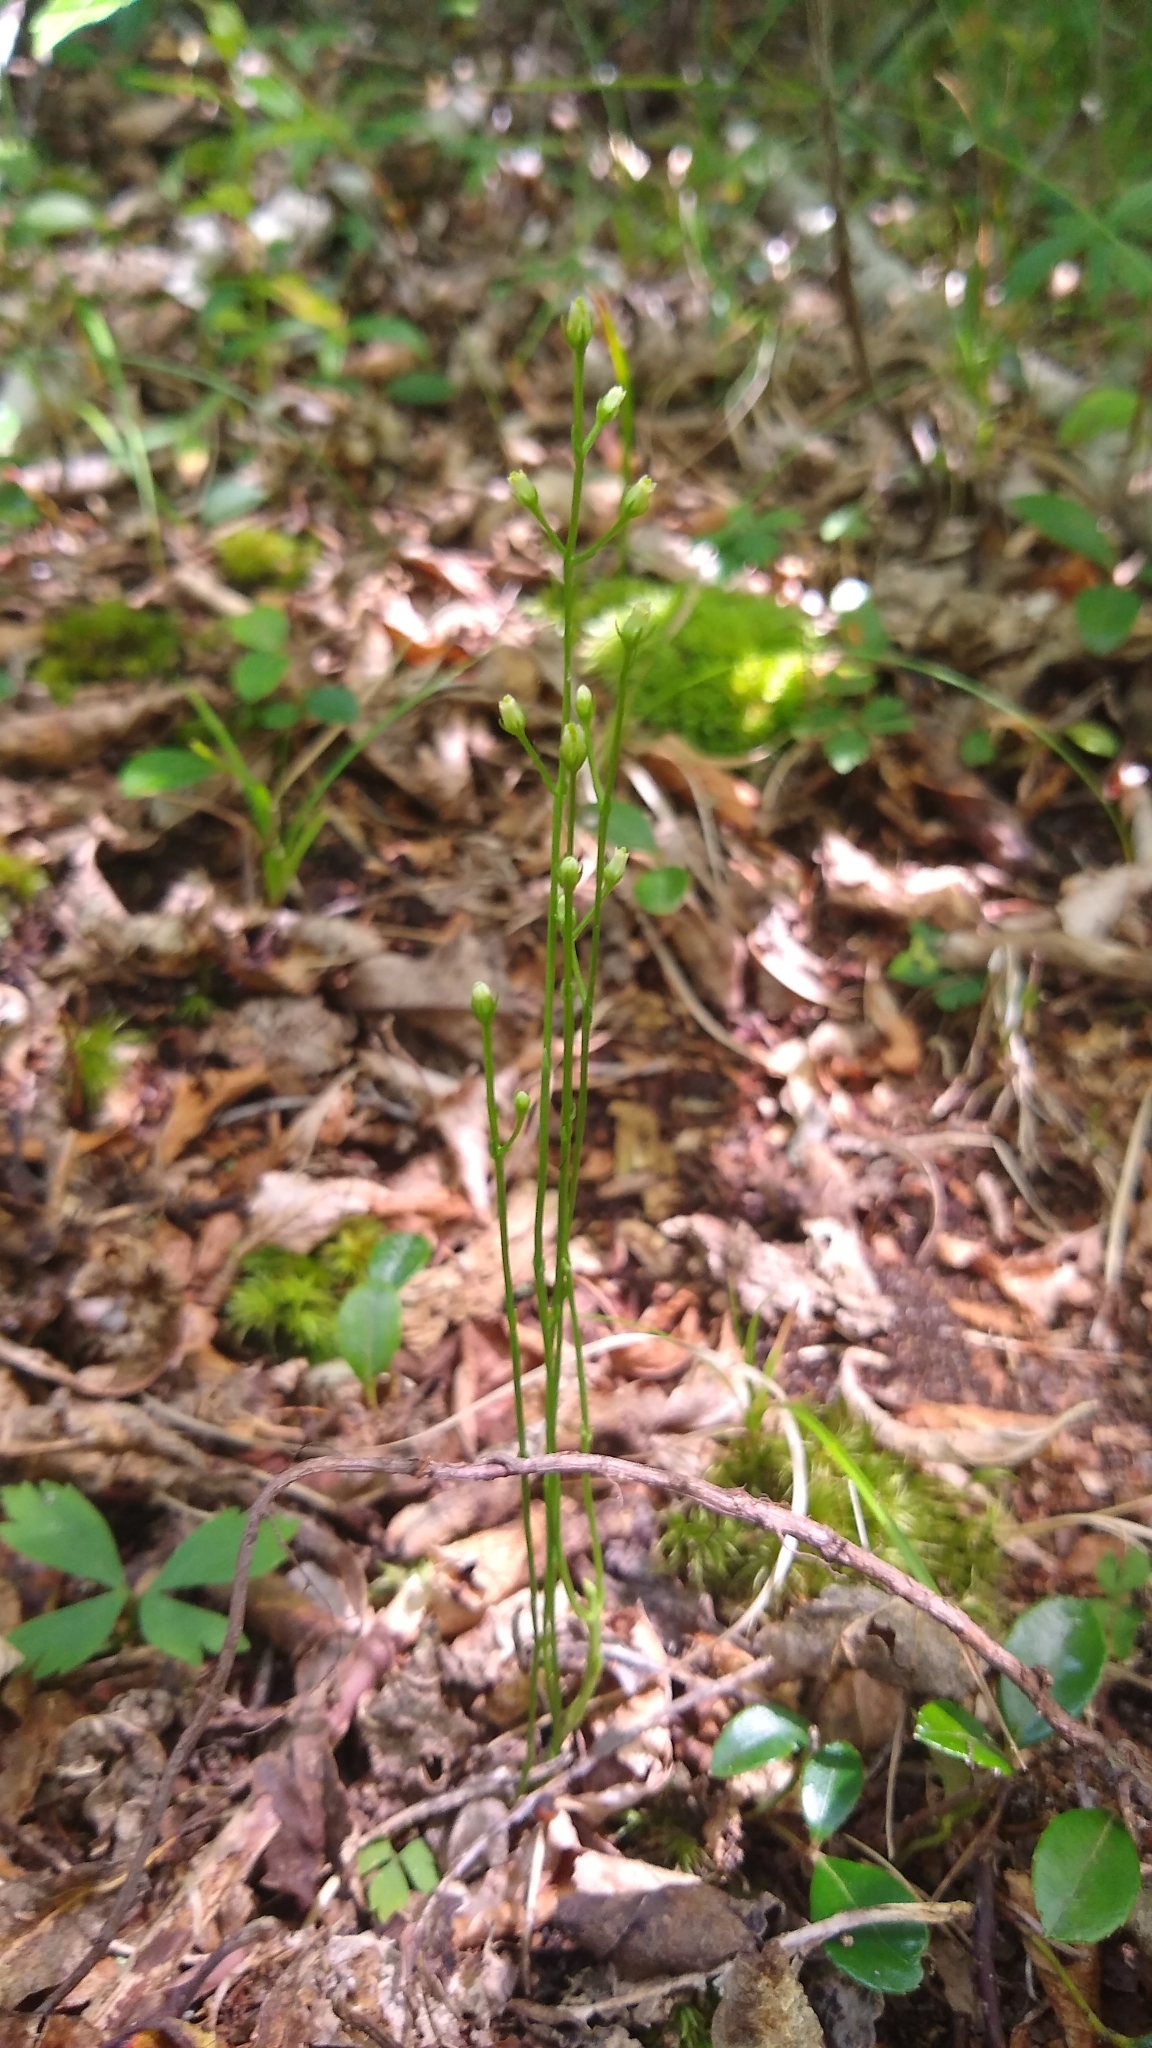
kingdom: Plantae
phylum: Tracheophyta
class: Magnoliopsida
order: Gentianales
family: Gentianaceae
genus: Bartonia
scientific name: Bartonia virginica
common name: Yellow bartonia
